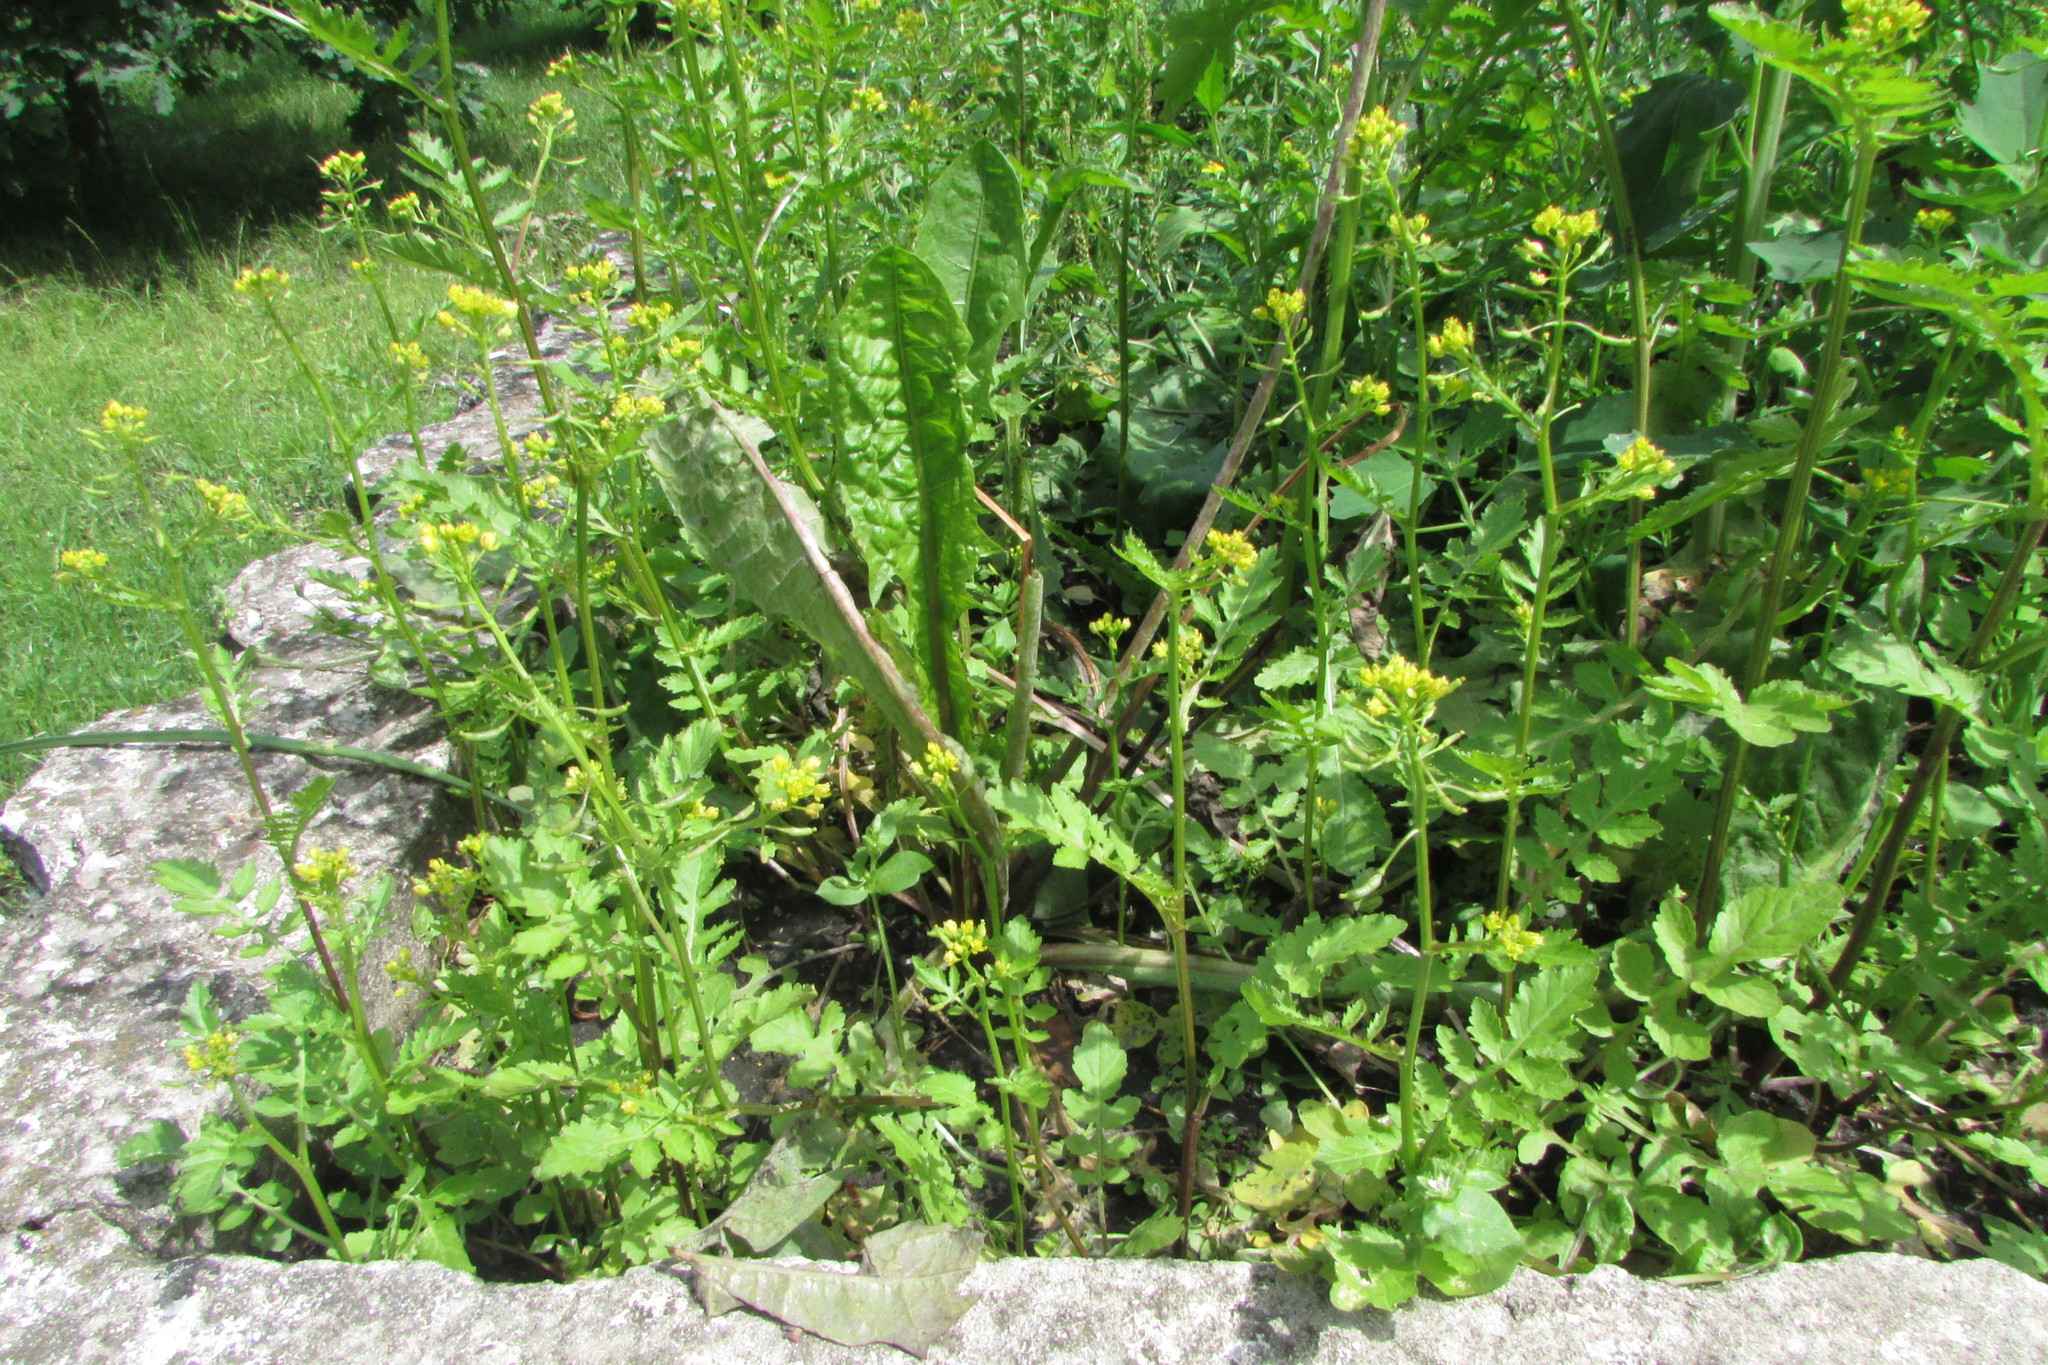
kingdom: Plantae
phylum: Tracheophyta
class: Magnoliopsida
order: Brassicales
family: Brassicaceae
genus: Rorippa
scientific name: Rorippa palustris
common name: Marsh yellow-cress
